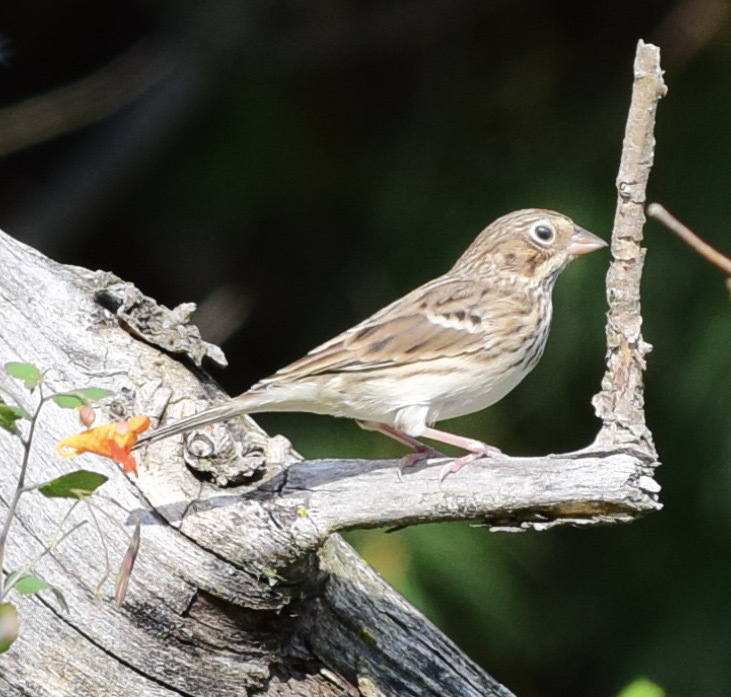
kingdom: Animalia
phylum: Chordata
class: Aves
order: Passeriformes
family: Passerellidae
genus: Pooecetes
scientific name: Pooecetes gramineus
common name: Vesper sparrow
